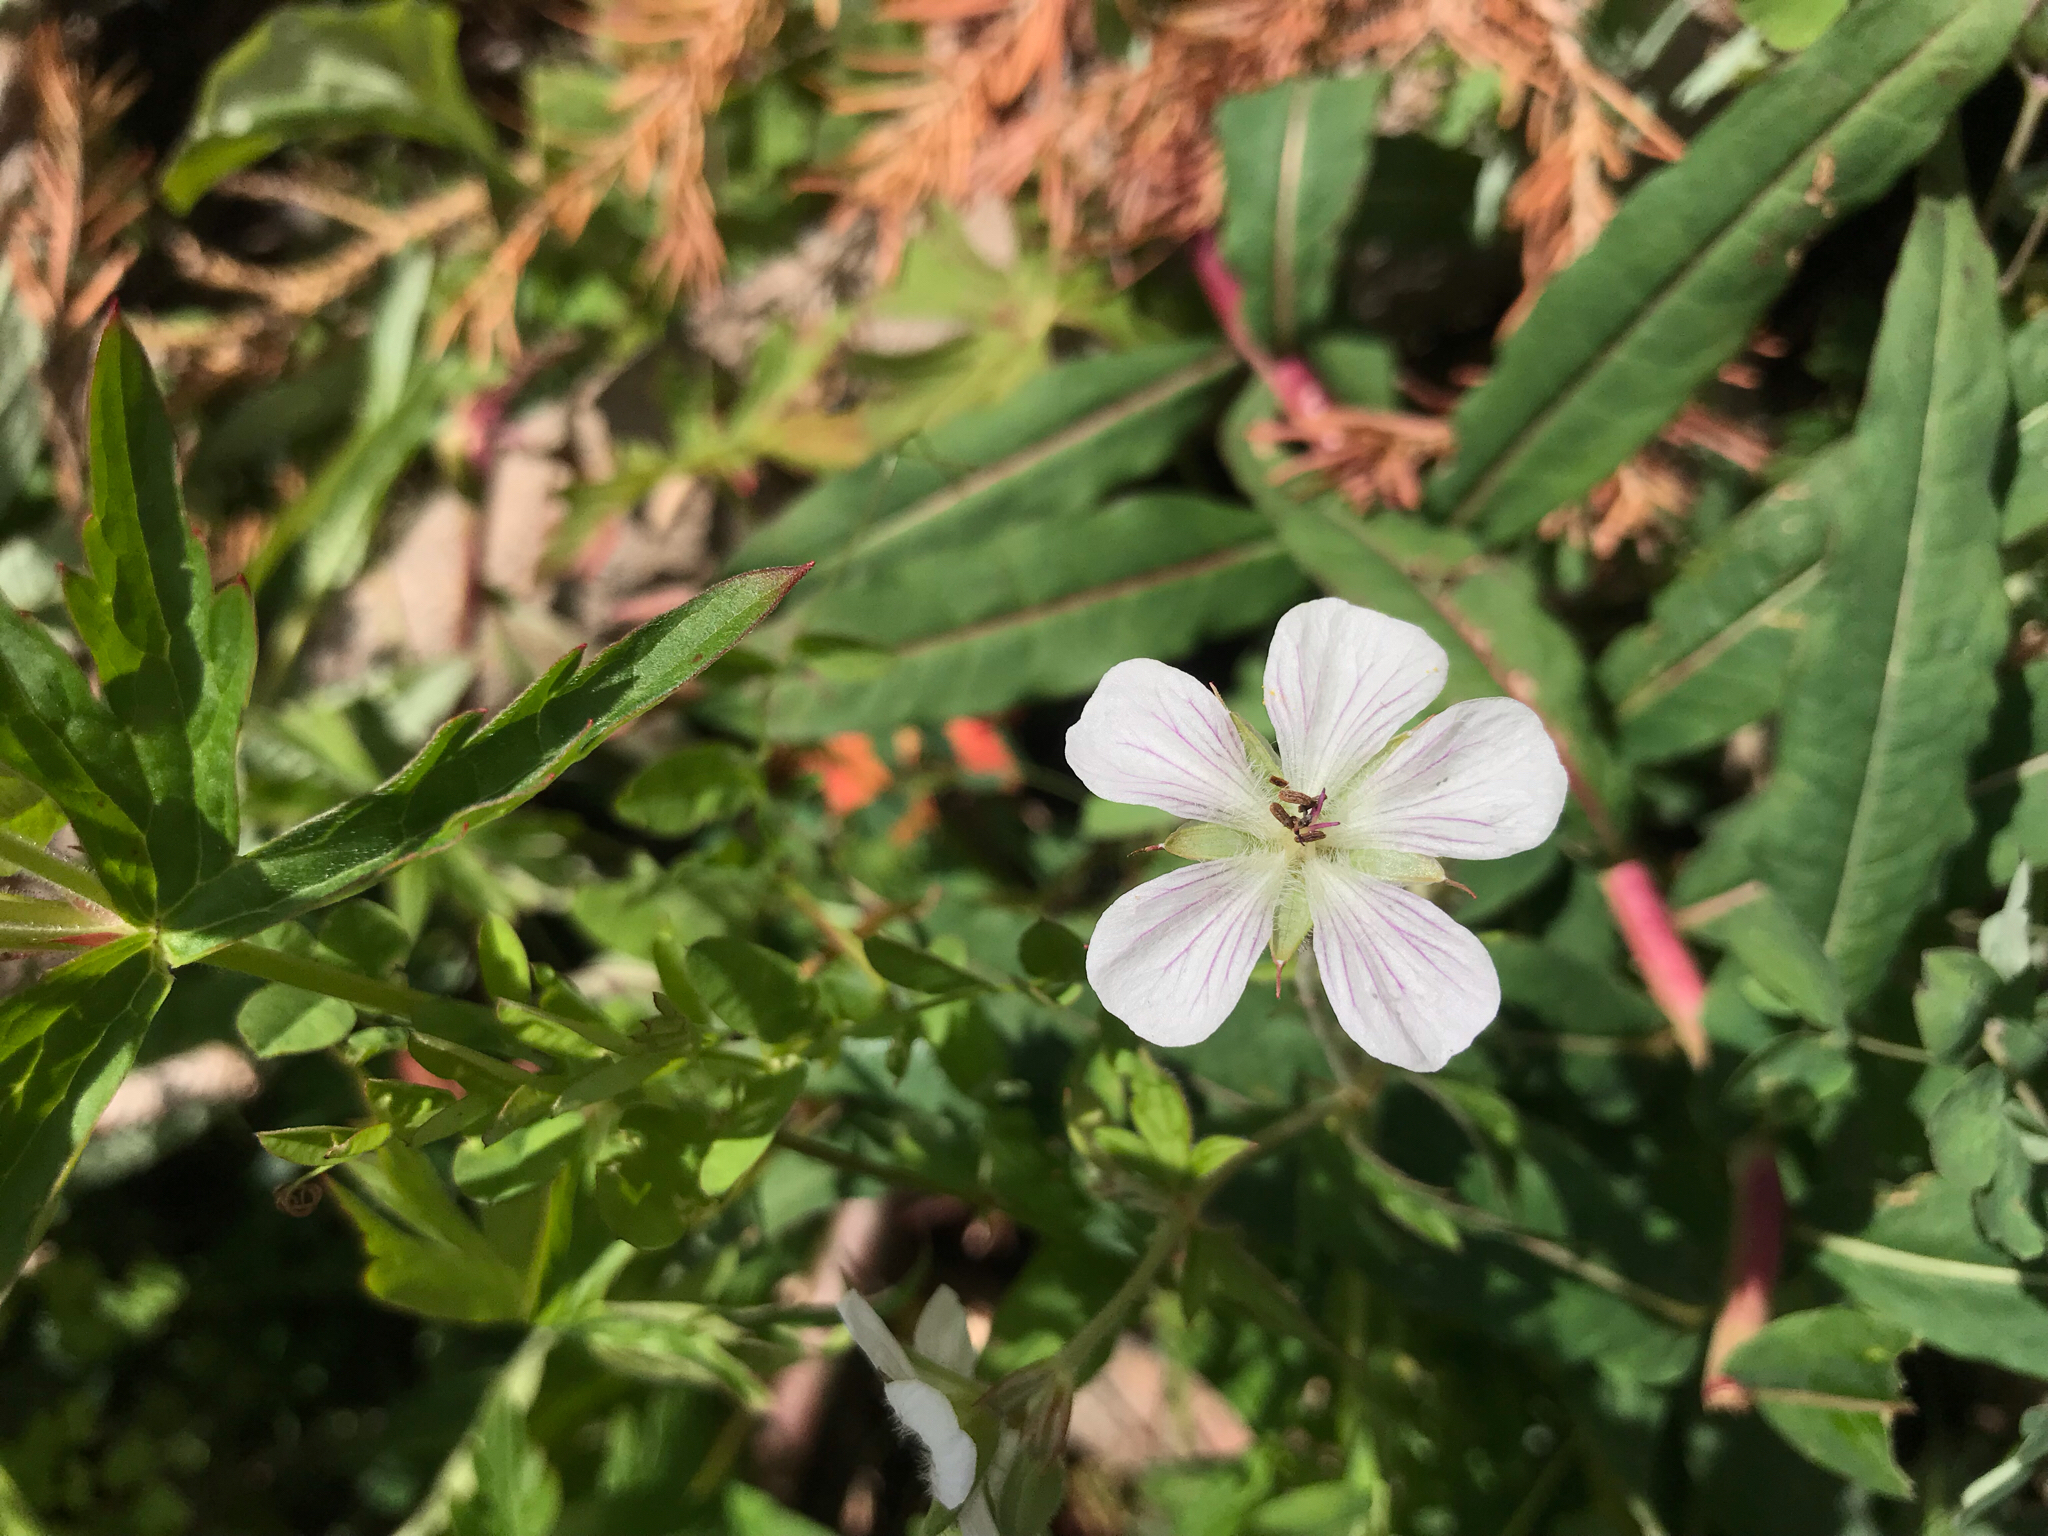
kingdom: Plantae
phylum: Tracheophyta
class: Magnoliopsida
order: Geraniales
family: Geraniaceae
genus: Geranium
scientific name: Geranium richardsonii
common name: Richardson's crane's-bill
